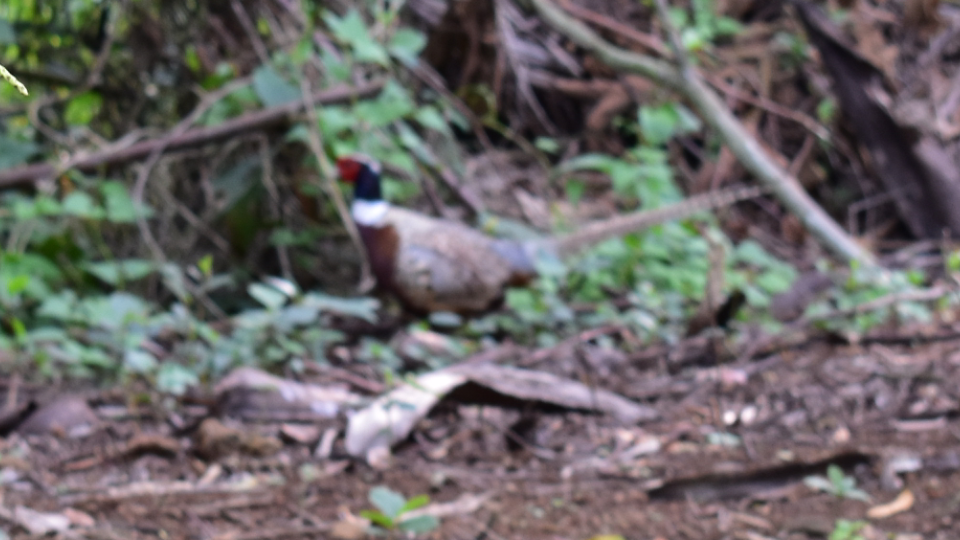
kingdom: Animalia
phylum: Chordata
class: Aves
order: Galliformes
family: Phasianidae
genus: Phasianus
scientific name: Phasianus colchicus
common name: Common pheasant
